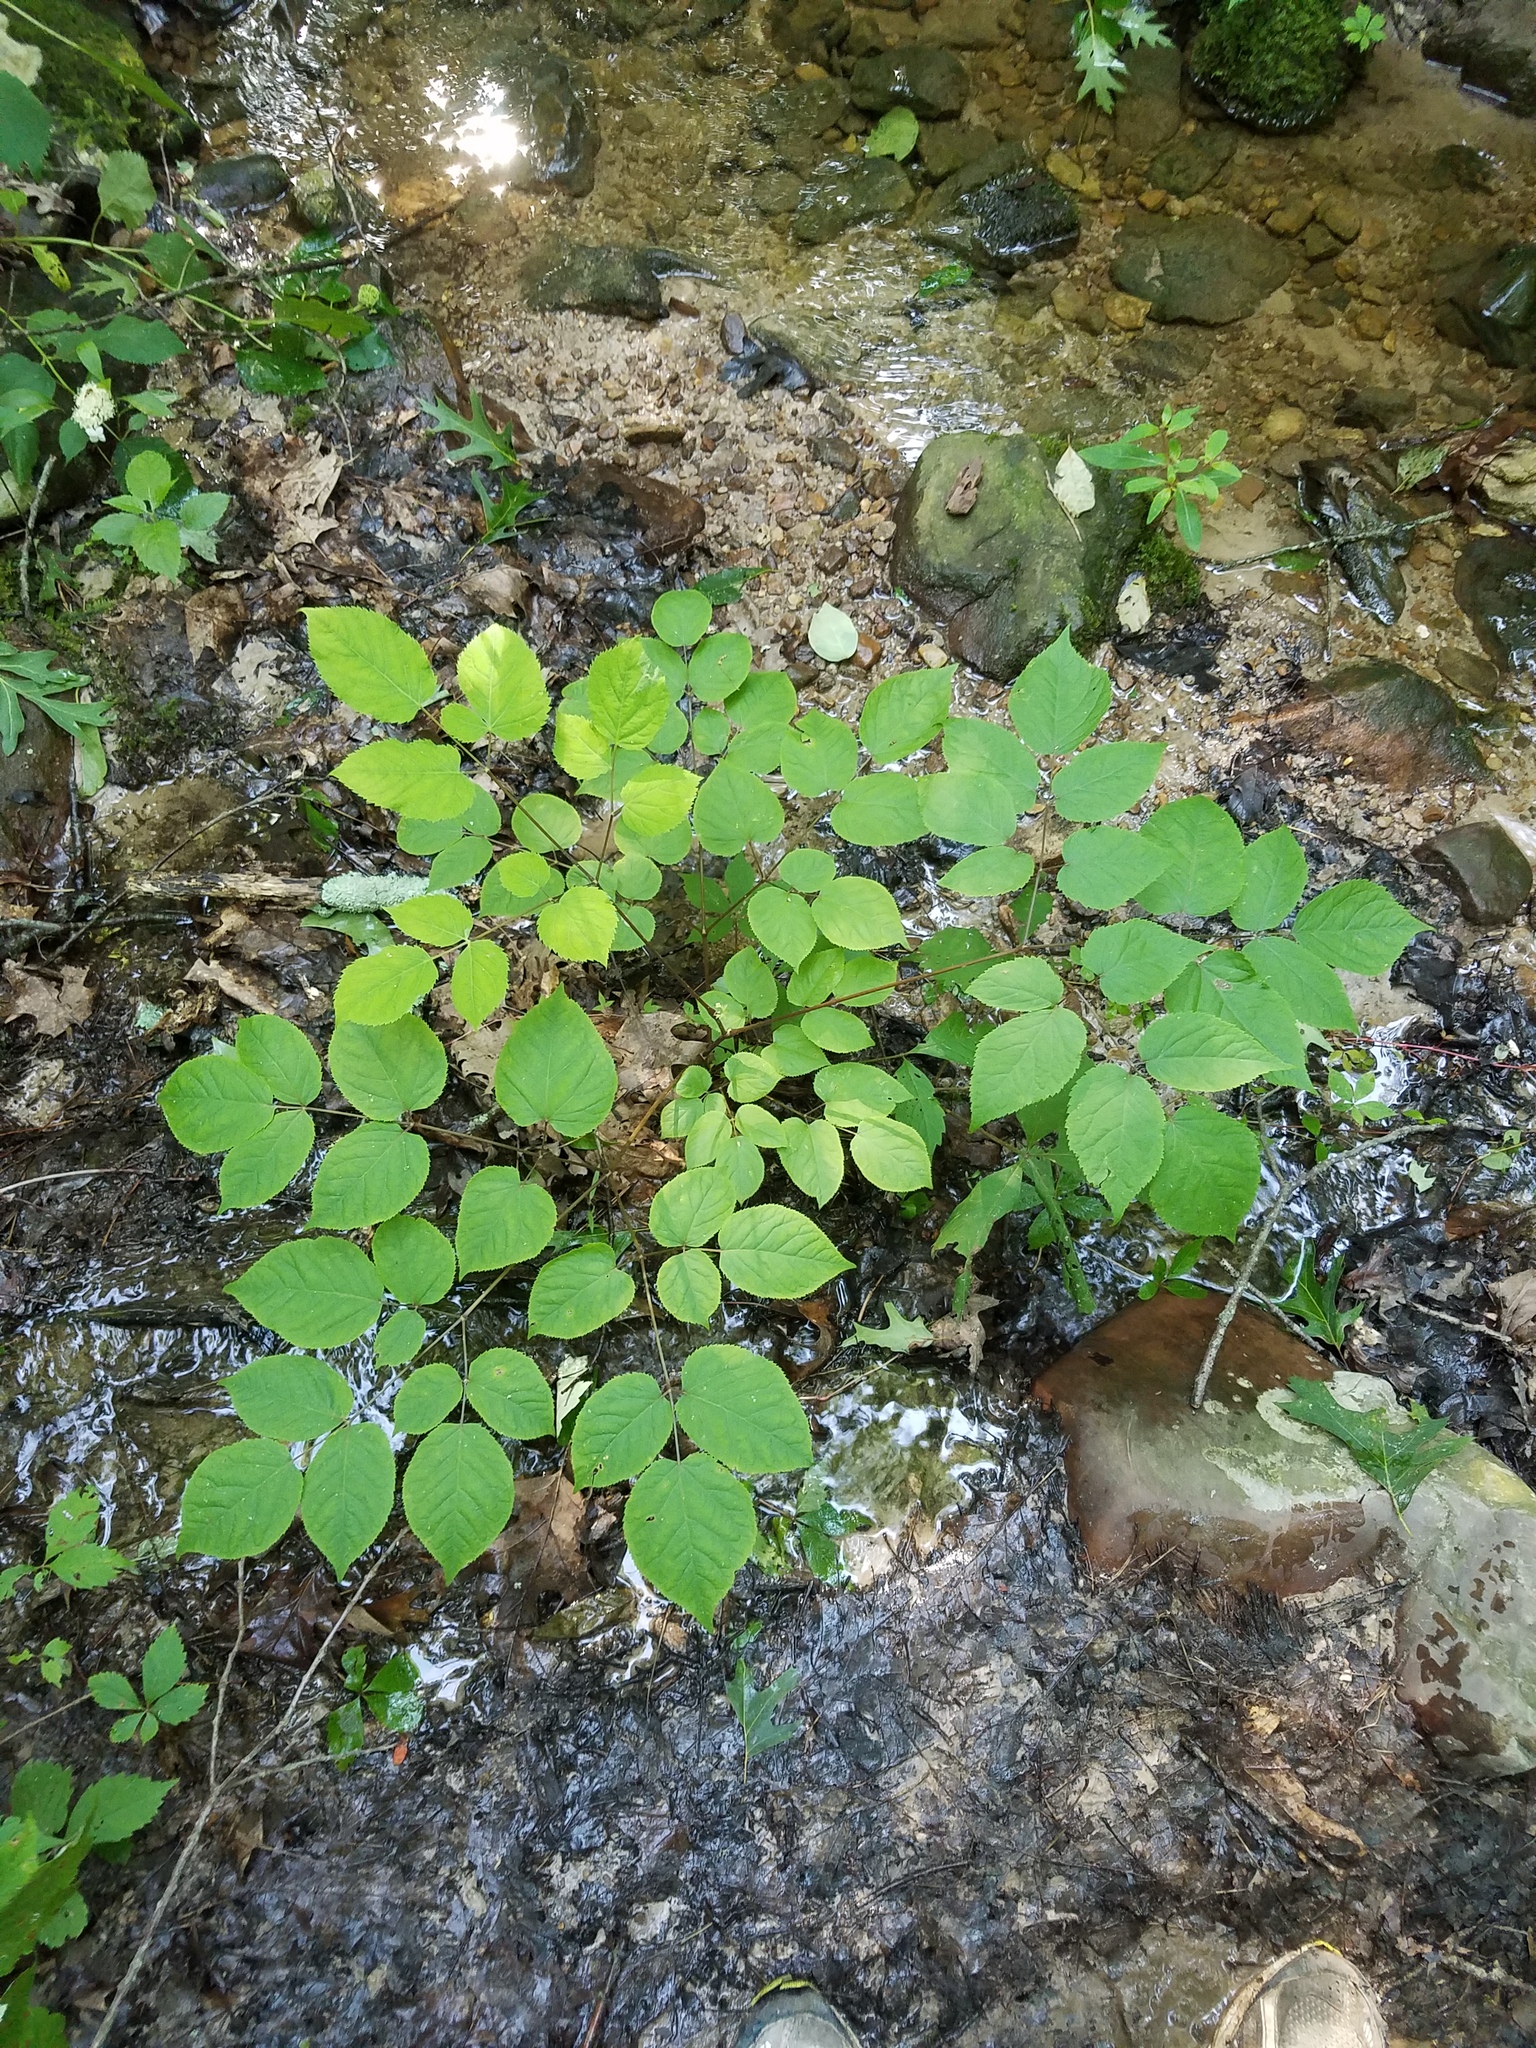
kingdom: Plantae
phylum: Tracheophyta
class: Magnoliopsida
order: Apiales
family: Araliaceae
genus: Aralia
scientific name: Aralia racemosa
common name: American-spikenard
